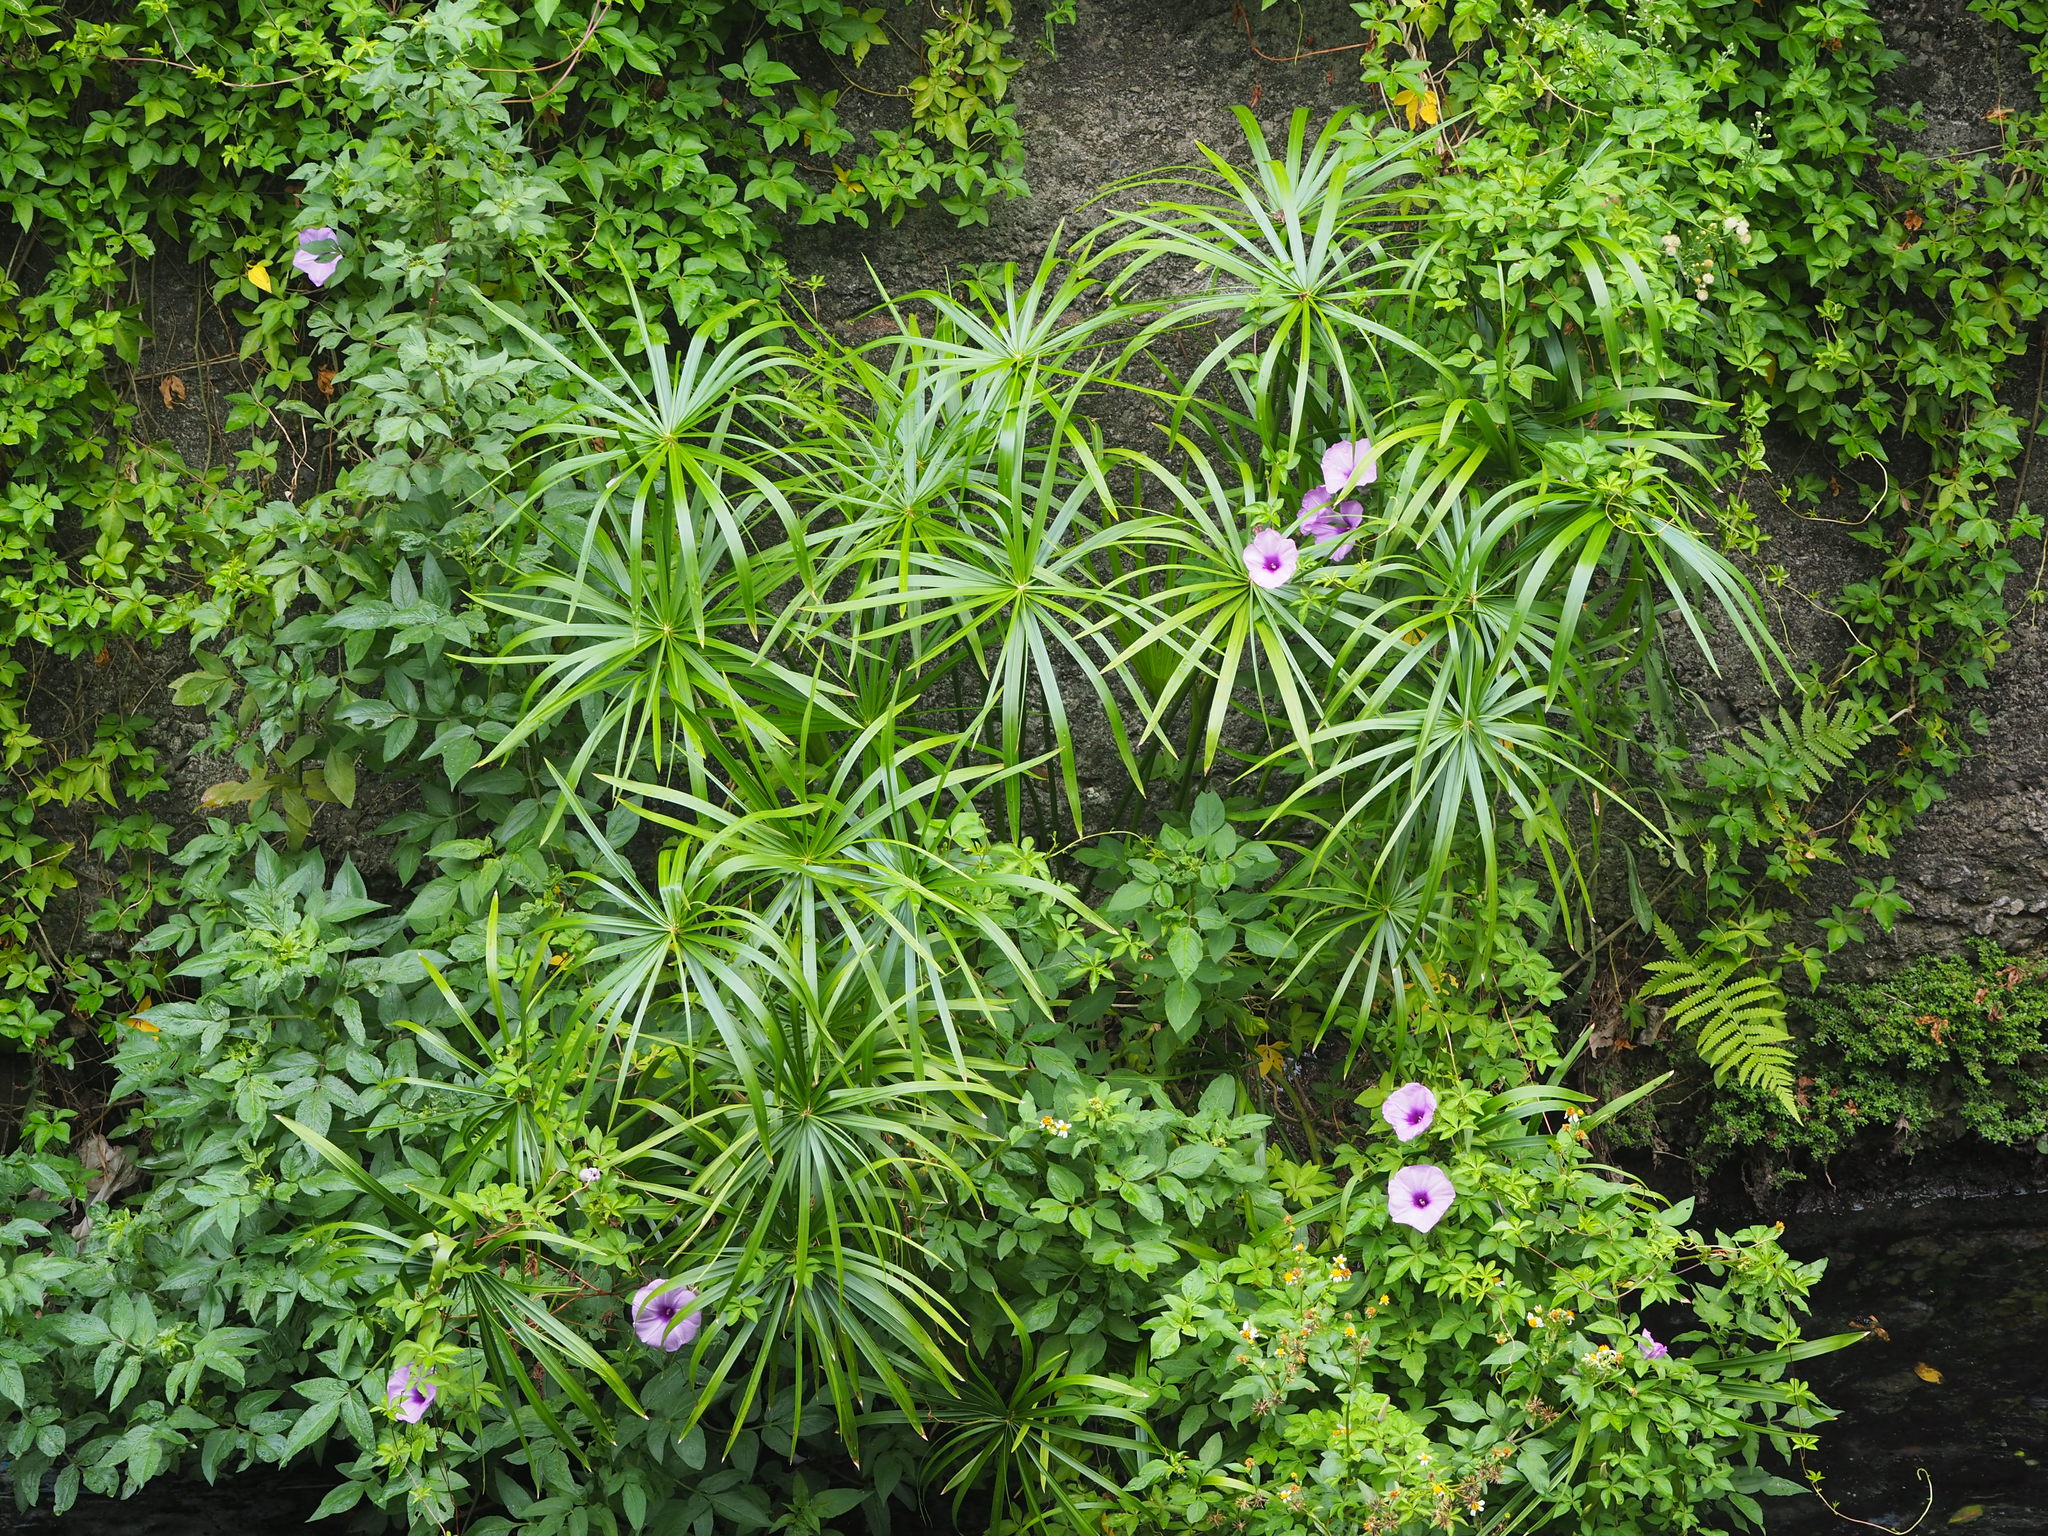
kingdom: Plantae
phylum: Tracheophyta
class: Liliopsida
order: Poales
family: Cyperaceae
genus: Cyperus
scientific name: Cyperus alternifolius
